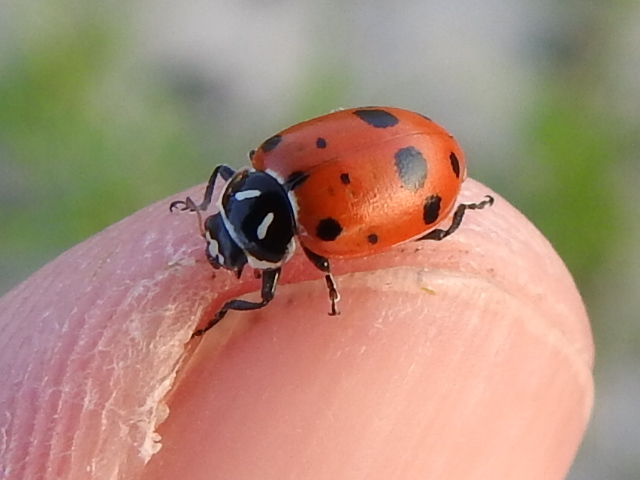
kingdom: Animalia
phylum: Arthropoda
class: Insecta
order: Coleoptera
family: Coccinellidae
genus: Hippodamia
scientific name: Hippodamia convergens
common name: Convergent lady beetle
